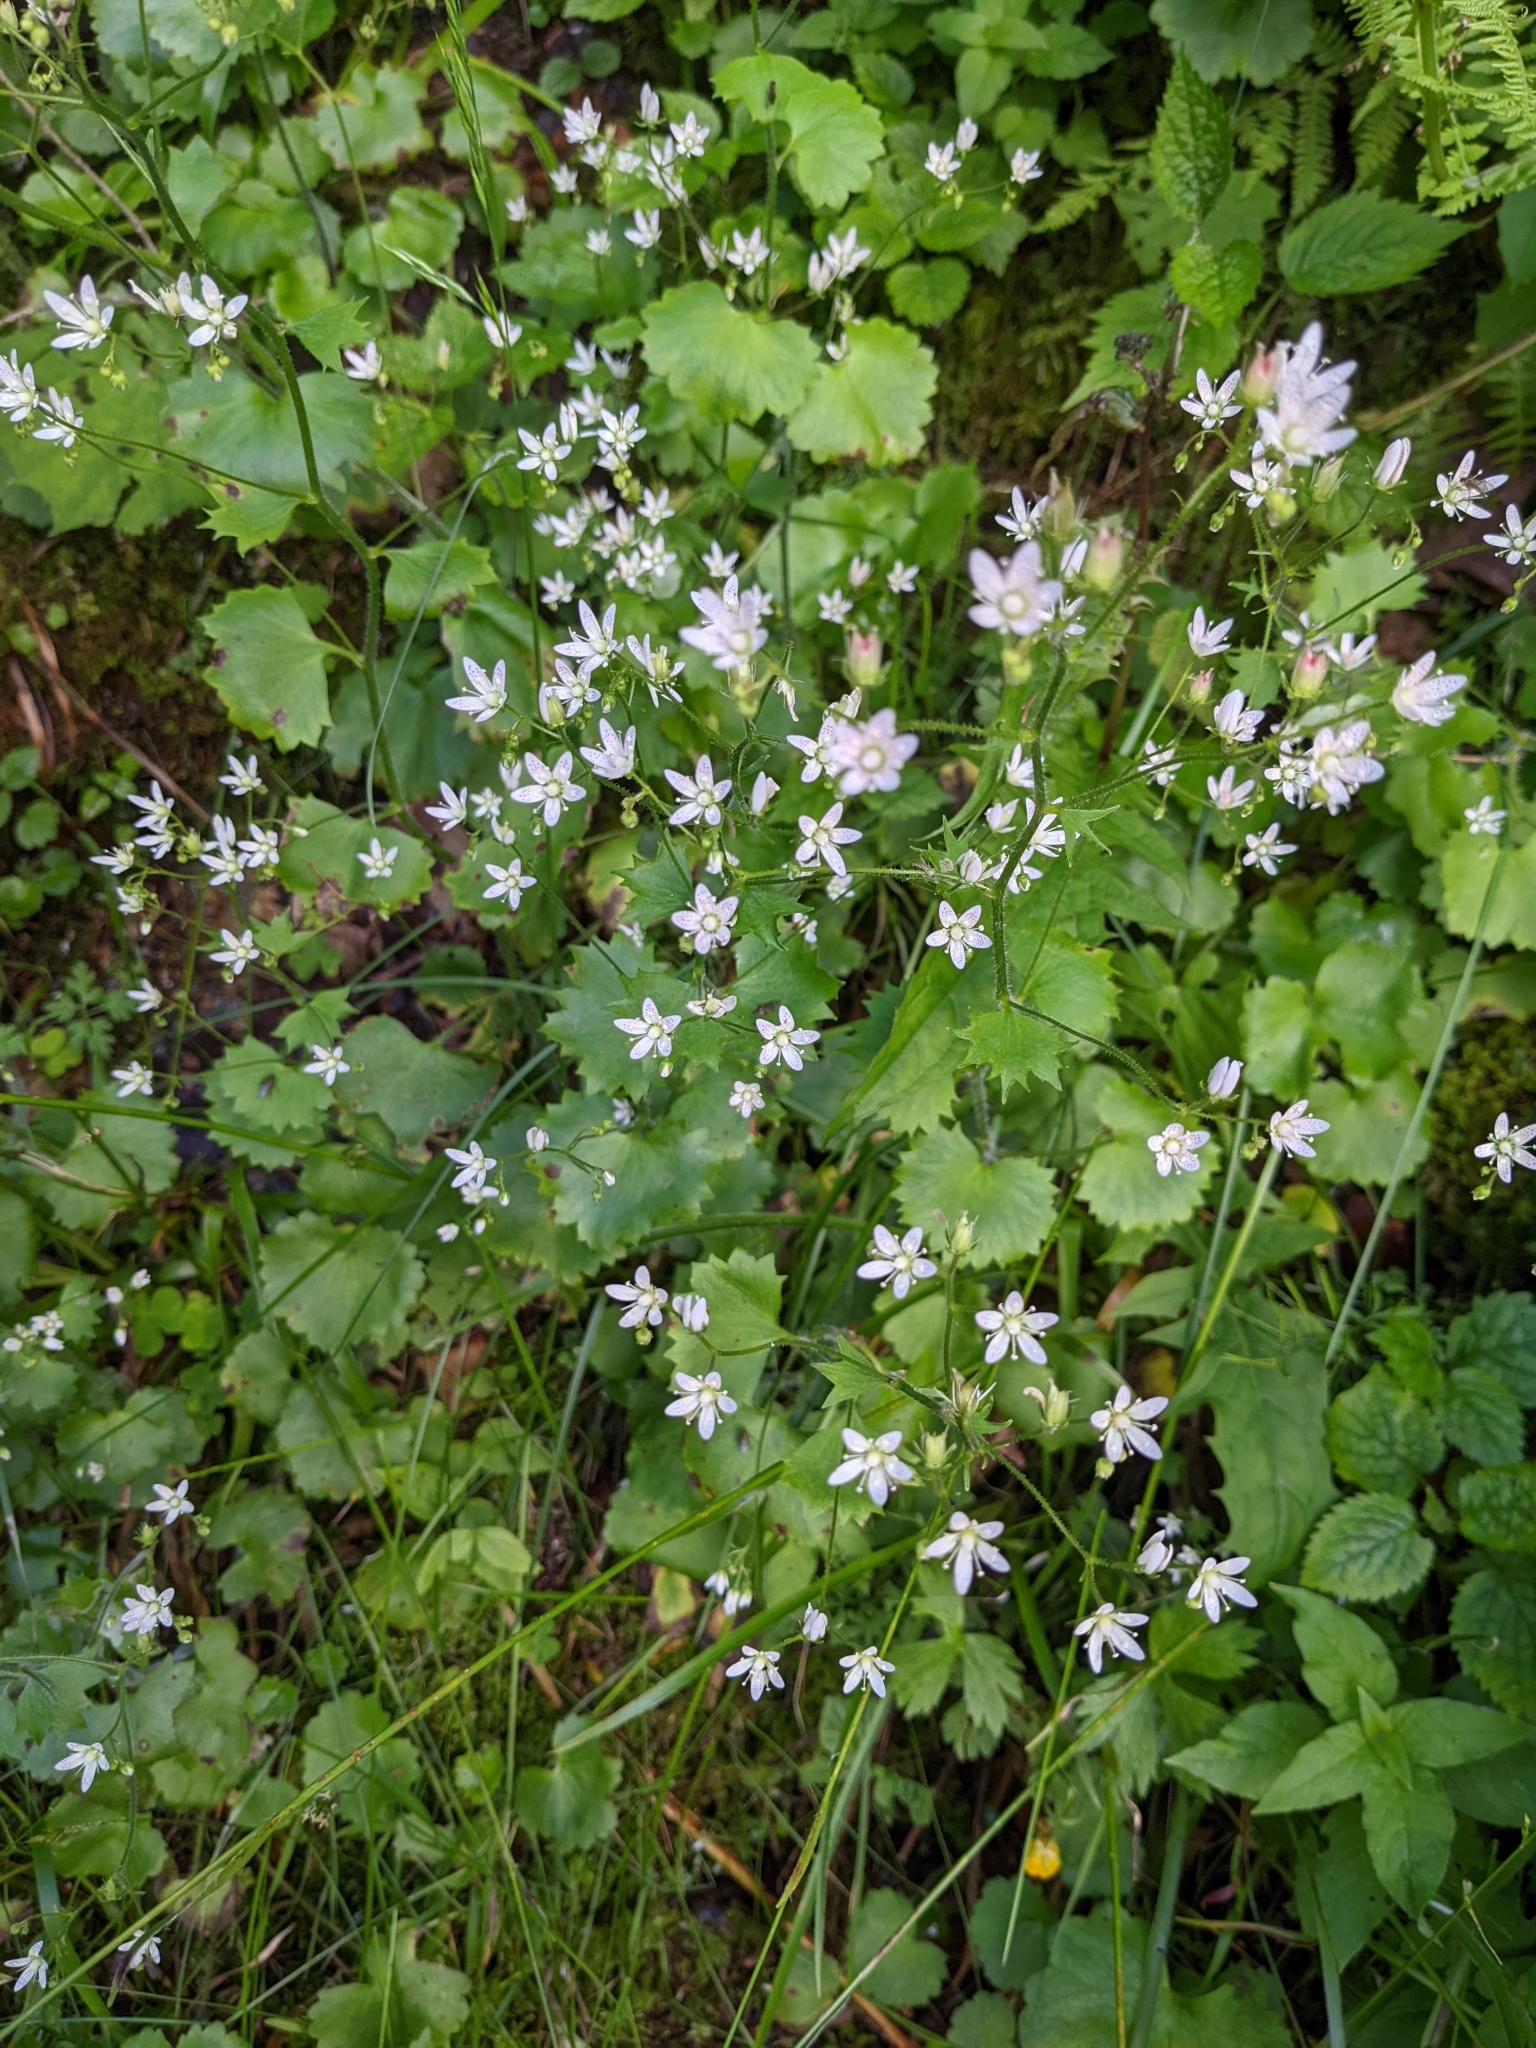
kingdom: Plantae
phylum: Tracheophyta
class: Magnoliopsida
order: Saxifragales
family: Saxifragaceae
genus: Saxifraga
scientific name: Saxifraga rotundifolia
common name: Round-leaved saxifrage
